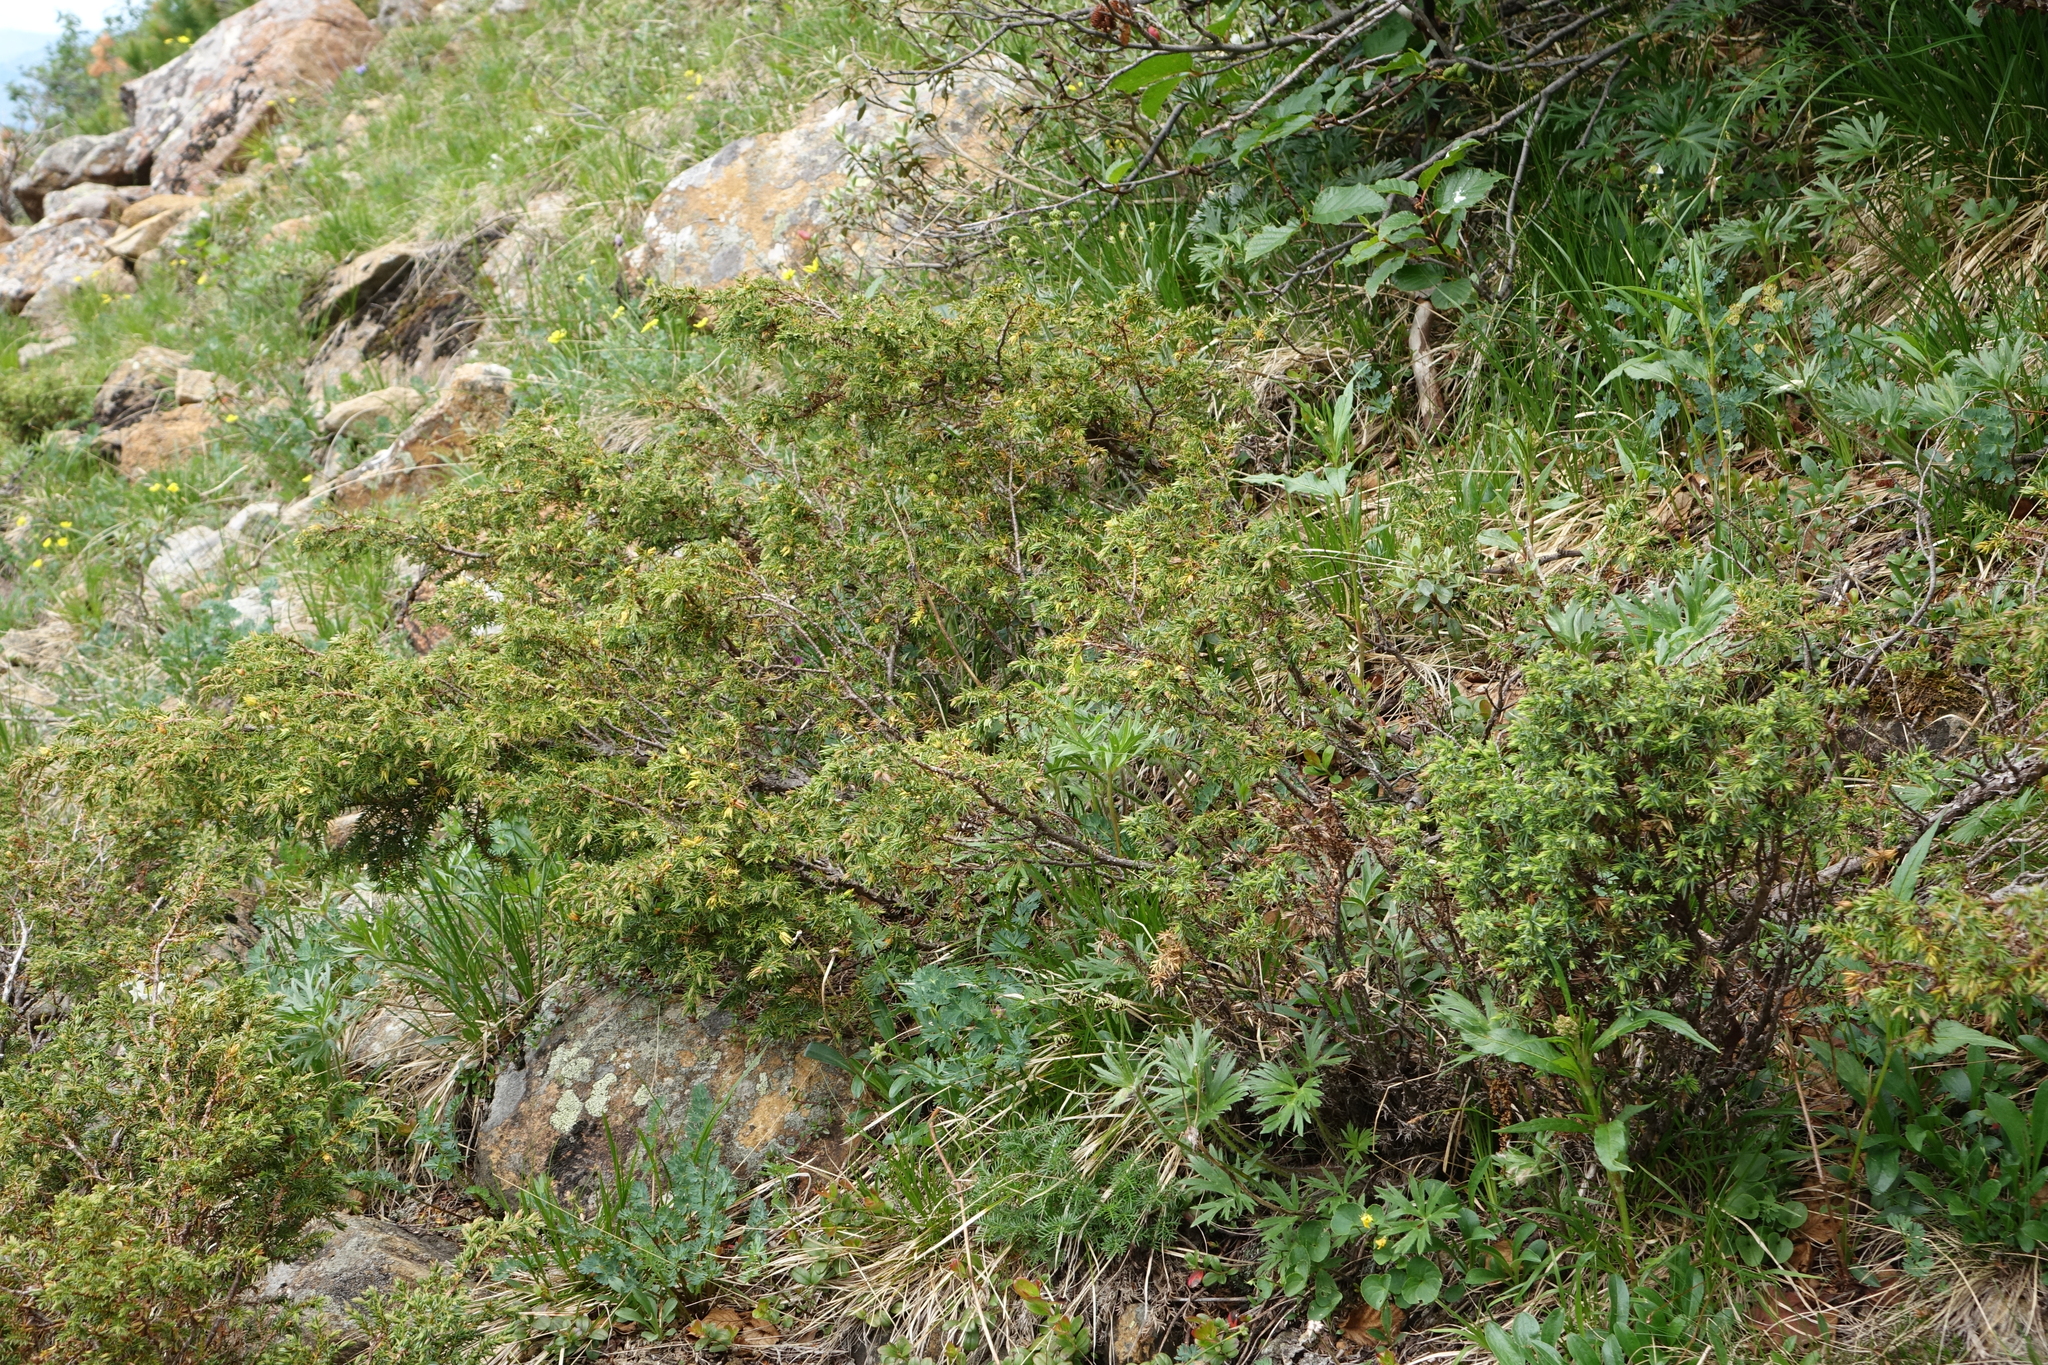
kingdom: Plantae
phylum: Tracheophyta
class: Pinopsida
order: Pinales
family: Cupressaceae
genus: Juniperus
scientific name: Juniperus communis
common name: Common juniper
